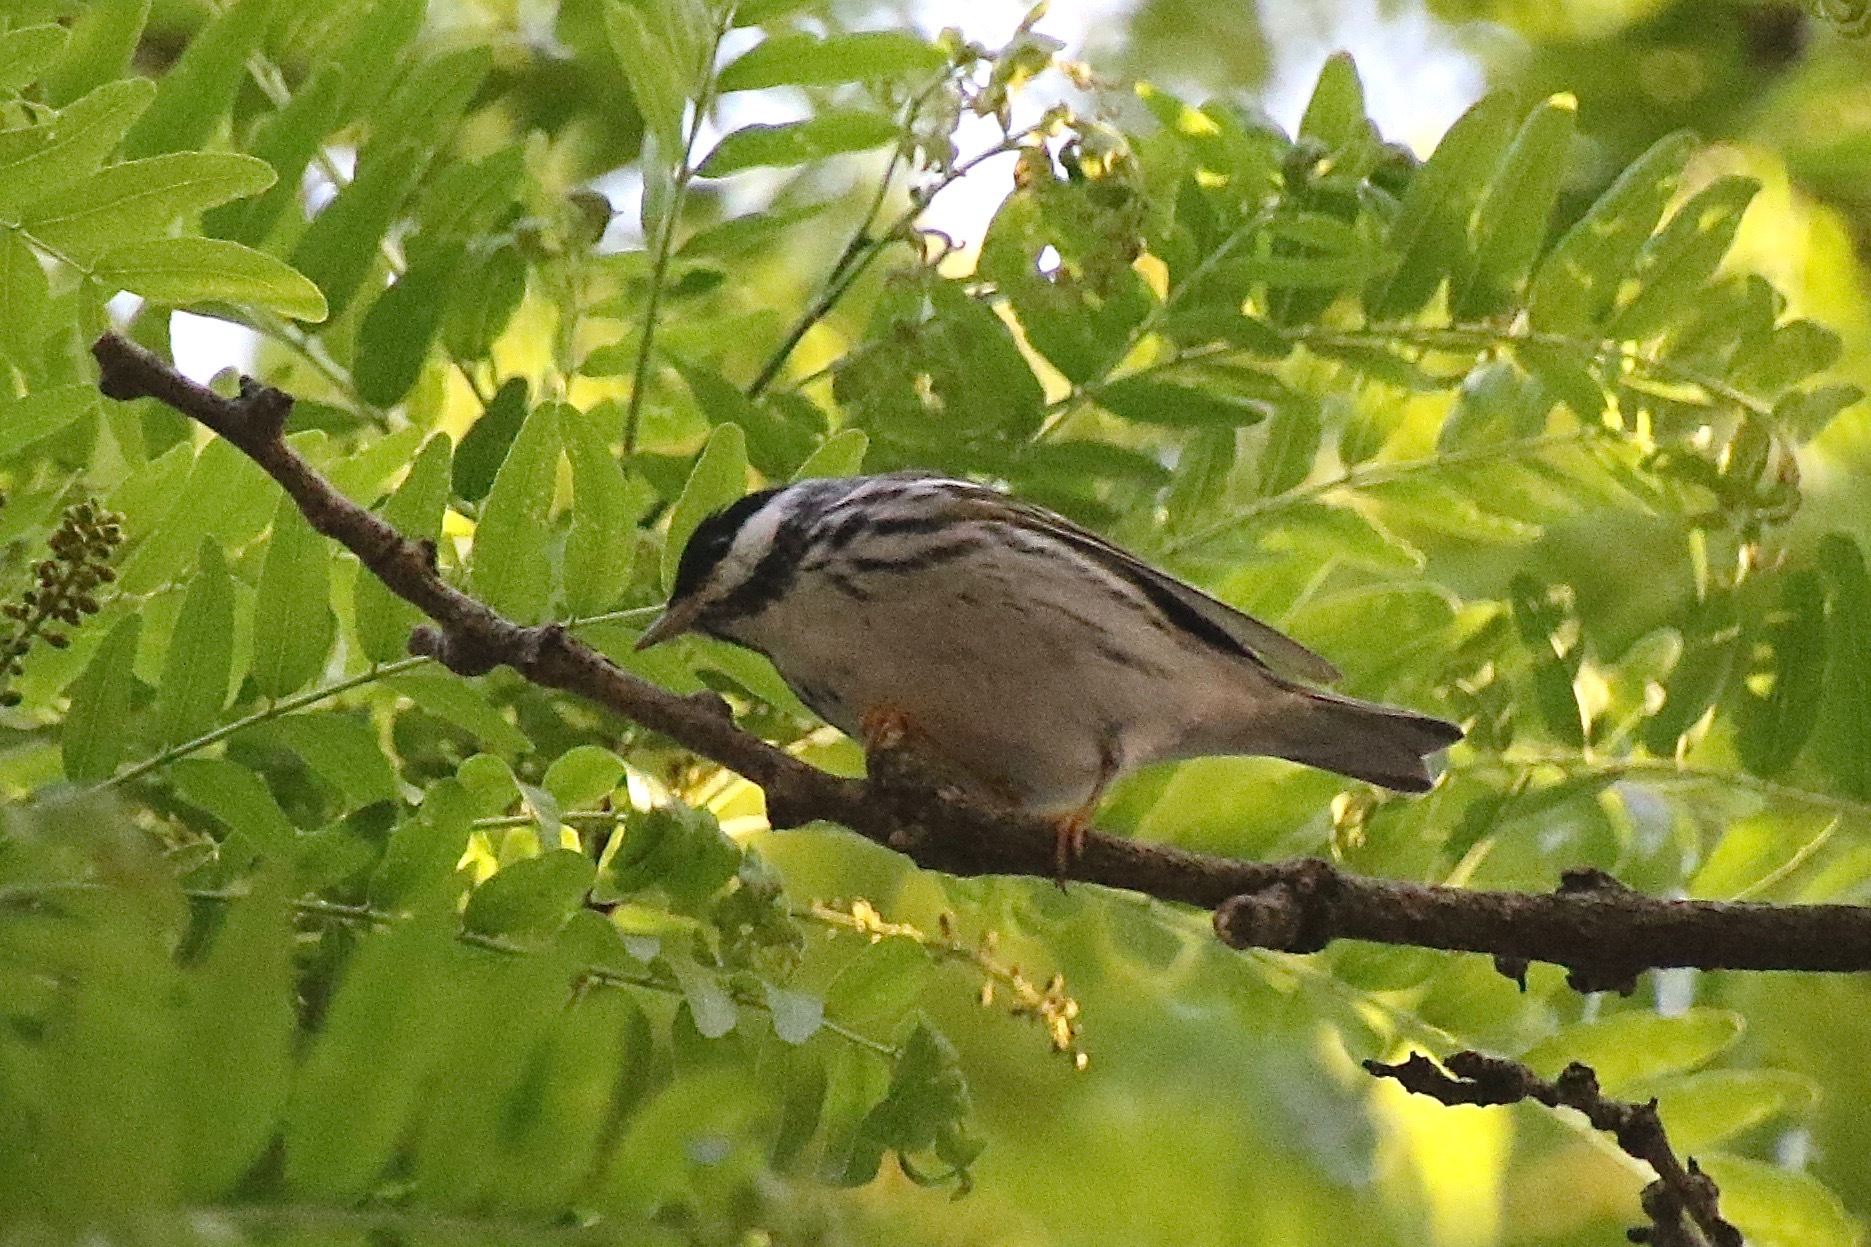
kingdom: Animalia
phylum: Chordata
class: Aves
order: Passeriformes
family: Parulidae
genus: Setophaga
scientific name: Setophaga striata
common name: Blackpoll warbler
